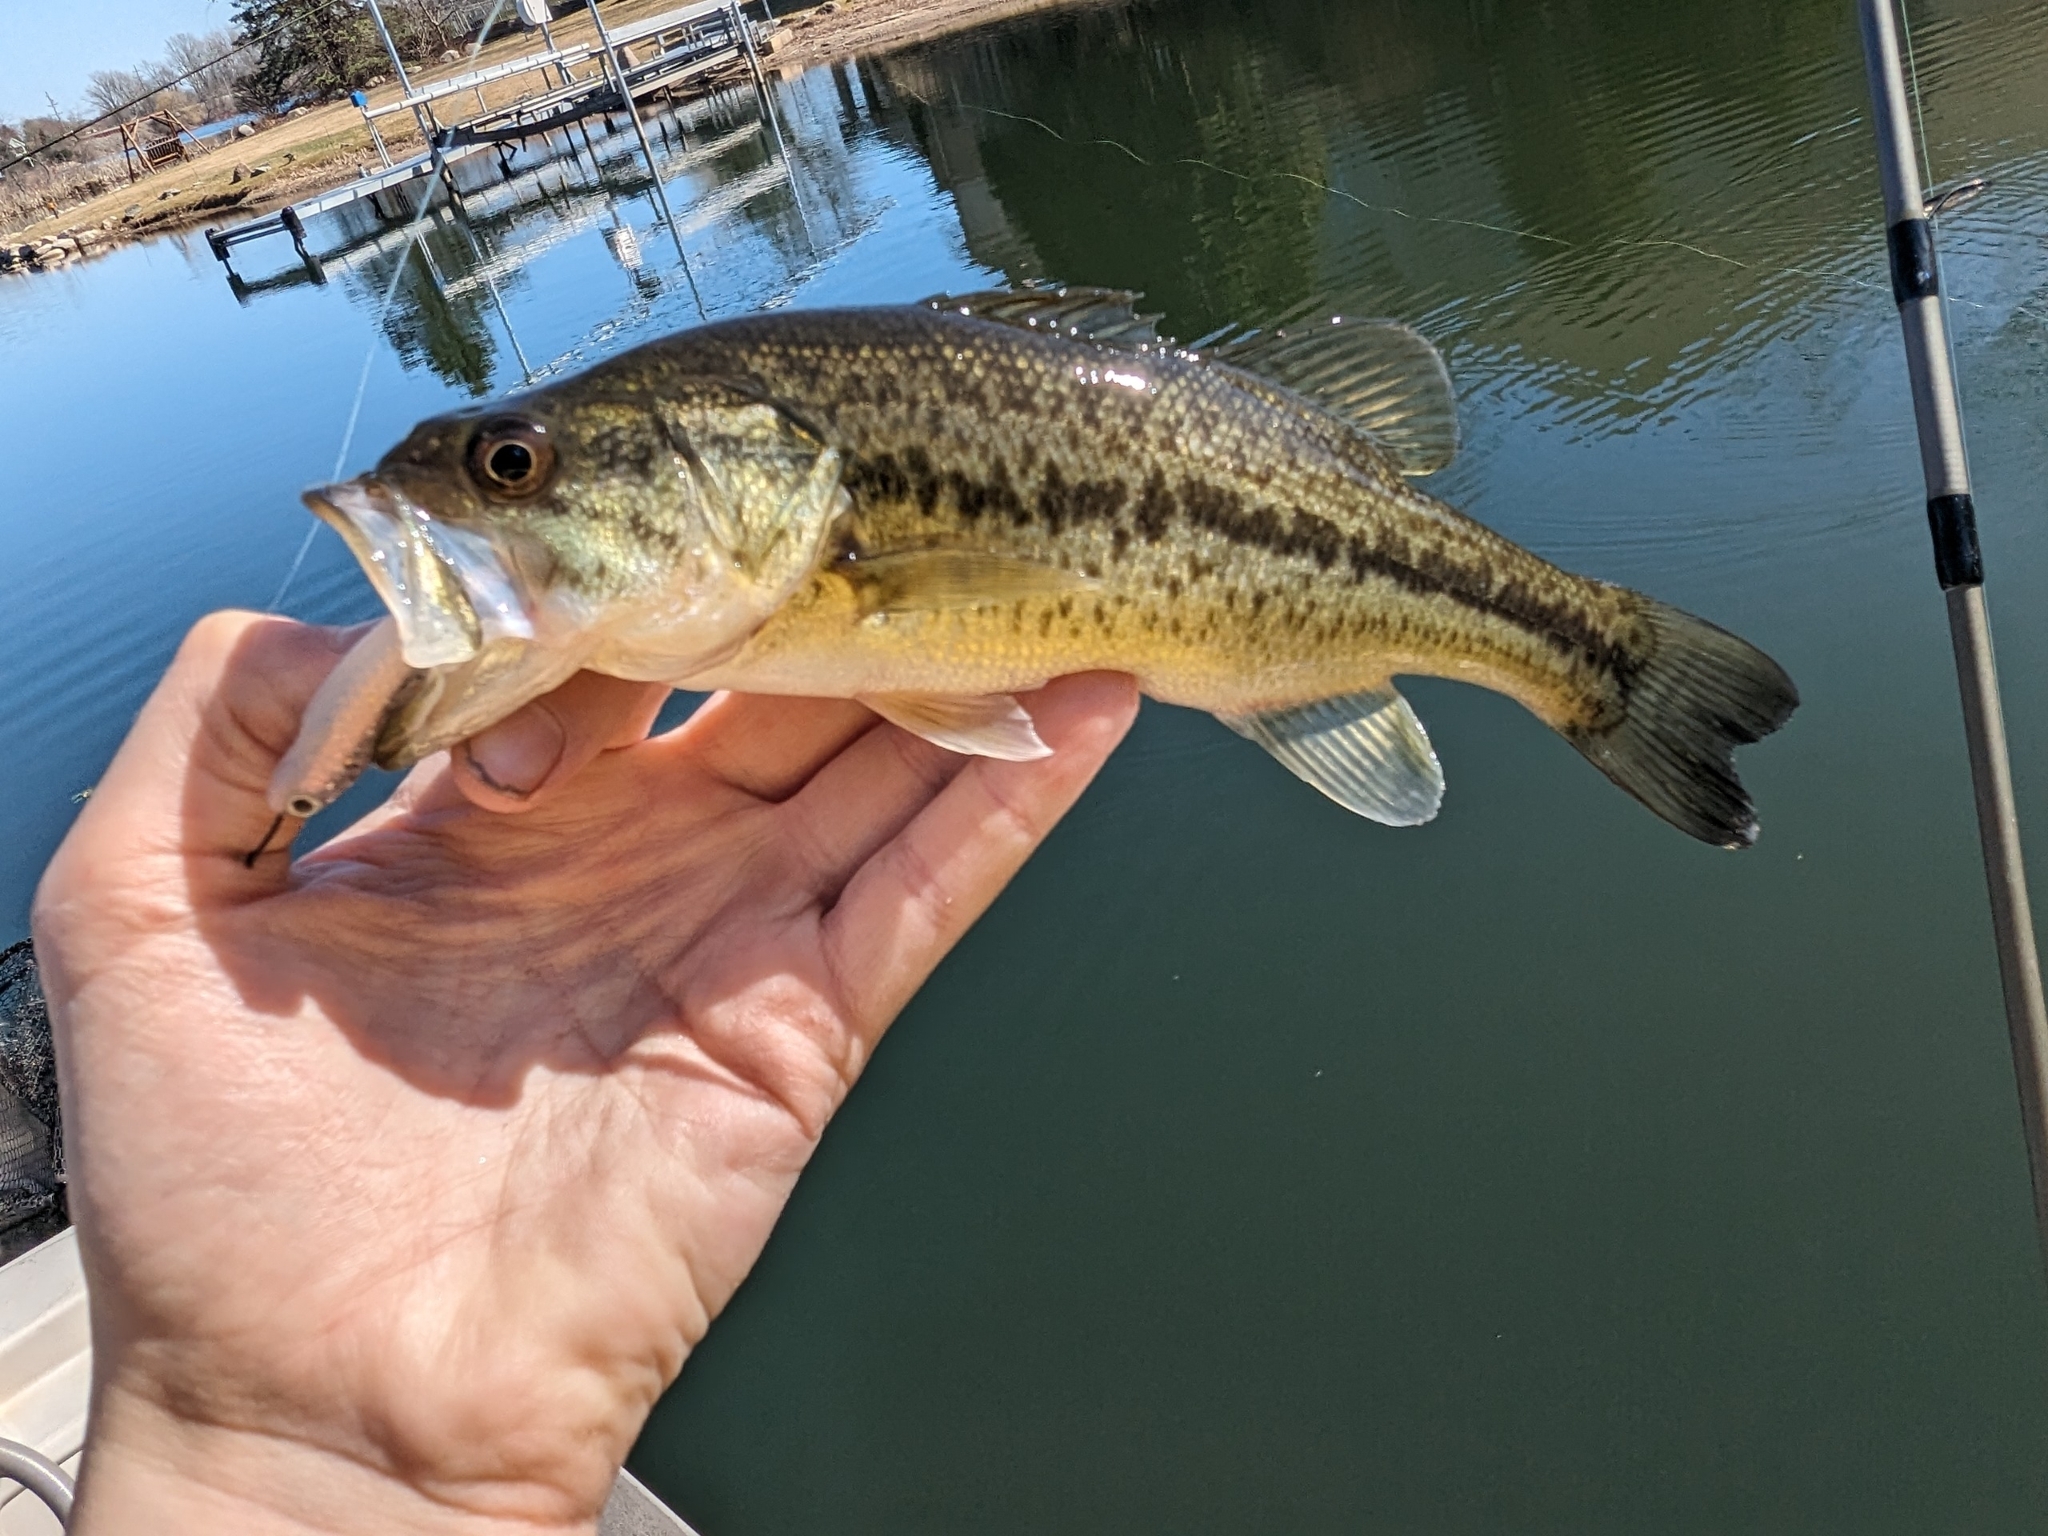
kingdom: Animalia
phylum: Chordata
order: Perciformes
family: Centrarchidae
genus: Micropterus
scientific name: Micropterus
